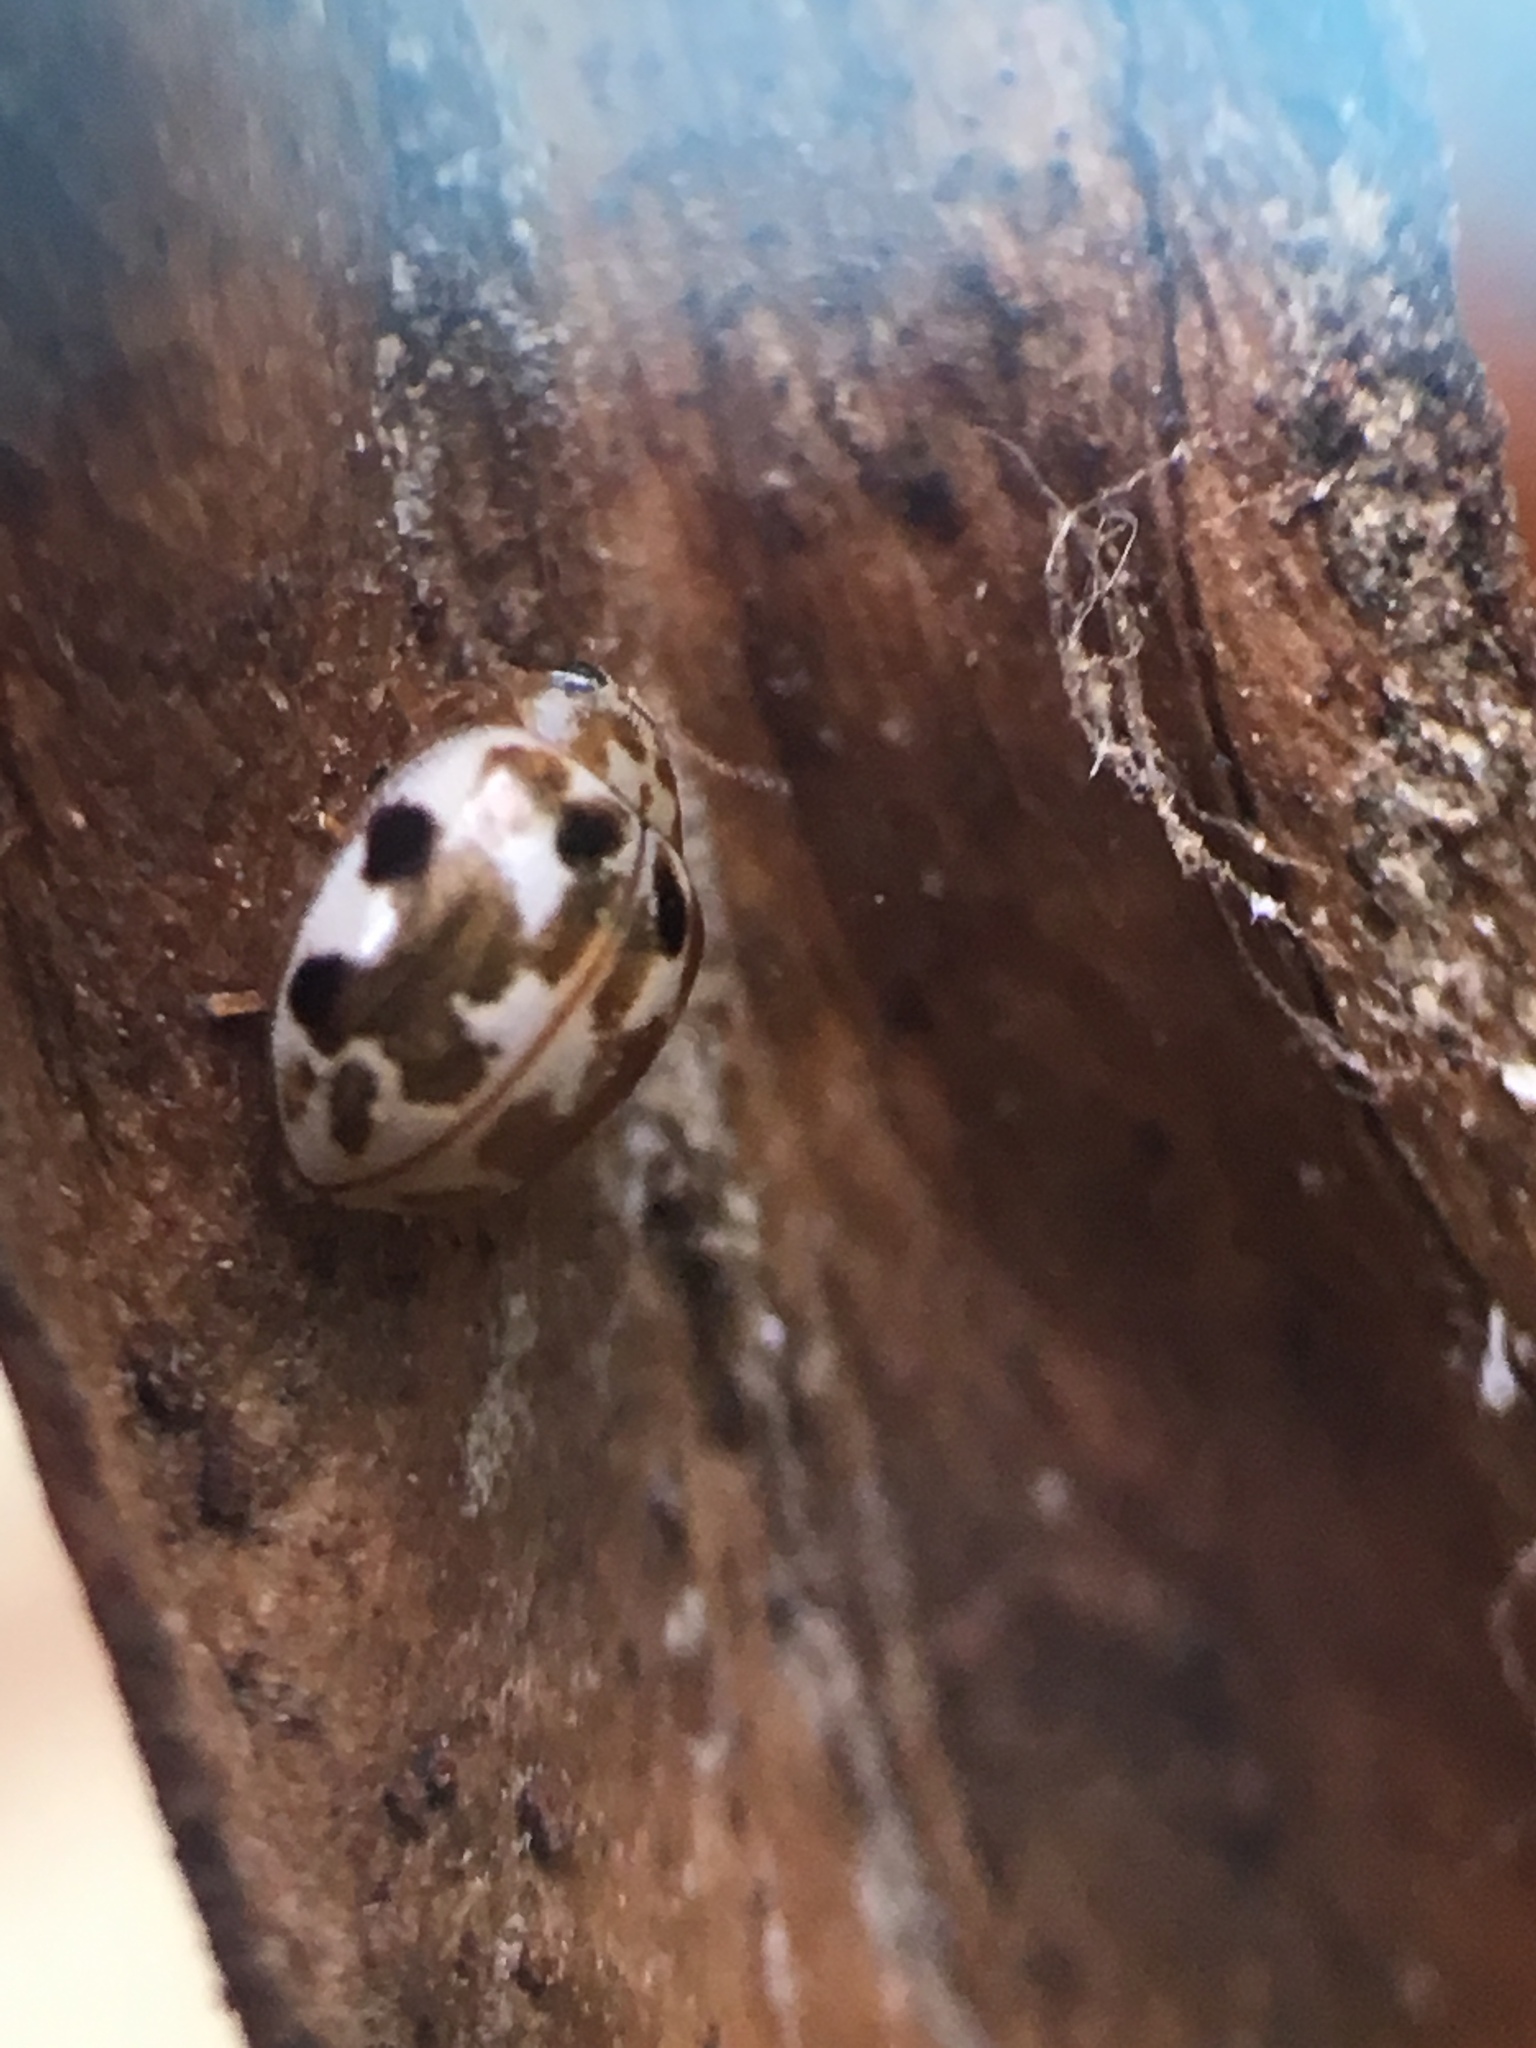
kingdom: Animalia
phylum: Arthropoda
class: Insecta
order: Coleoptera
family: Coccinellidae
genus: Psyllobora
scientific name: Psyllobora vigintimaculata
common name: Ladybird beetle
